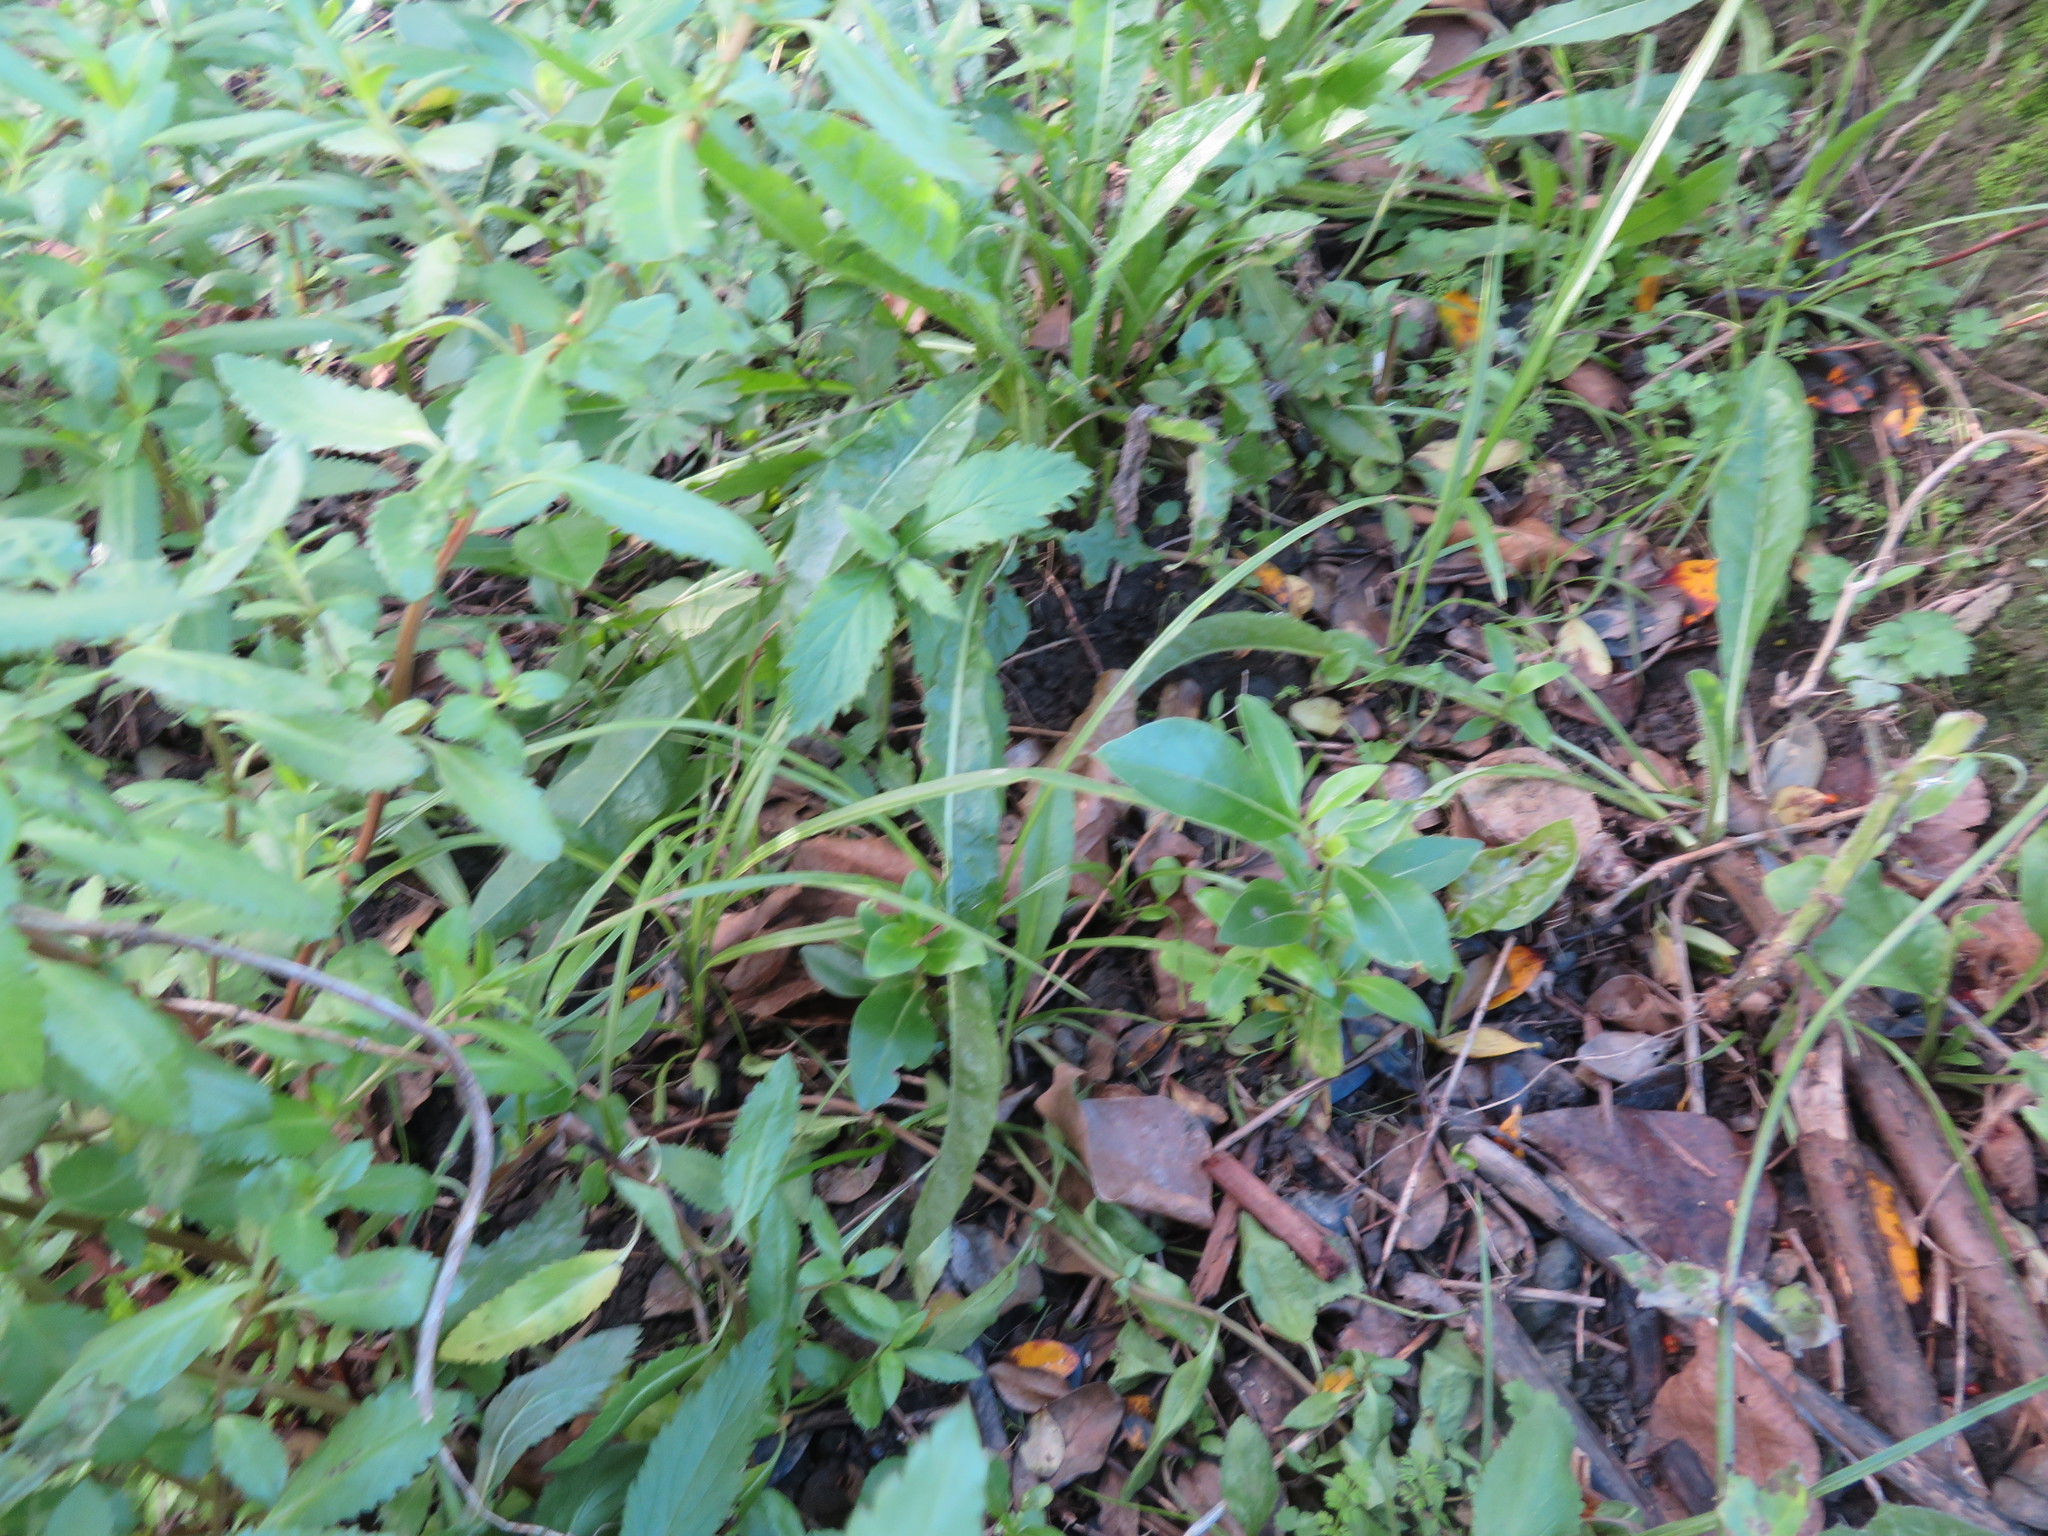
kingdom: Plantae
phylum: Tracheophyta
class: Liliopsida
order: Asparagales
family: Asparagaceae
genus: Cordyline
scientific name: Cordyline australis
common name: Cabbage-palm
